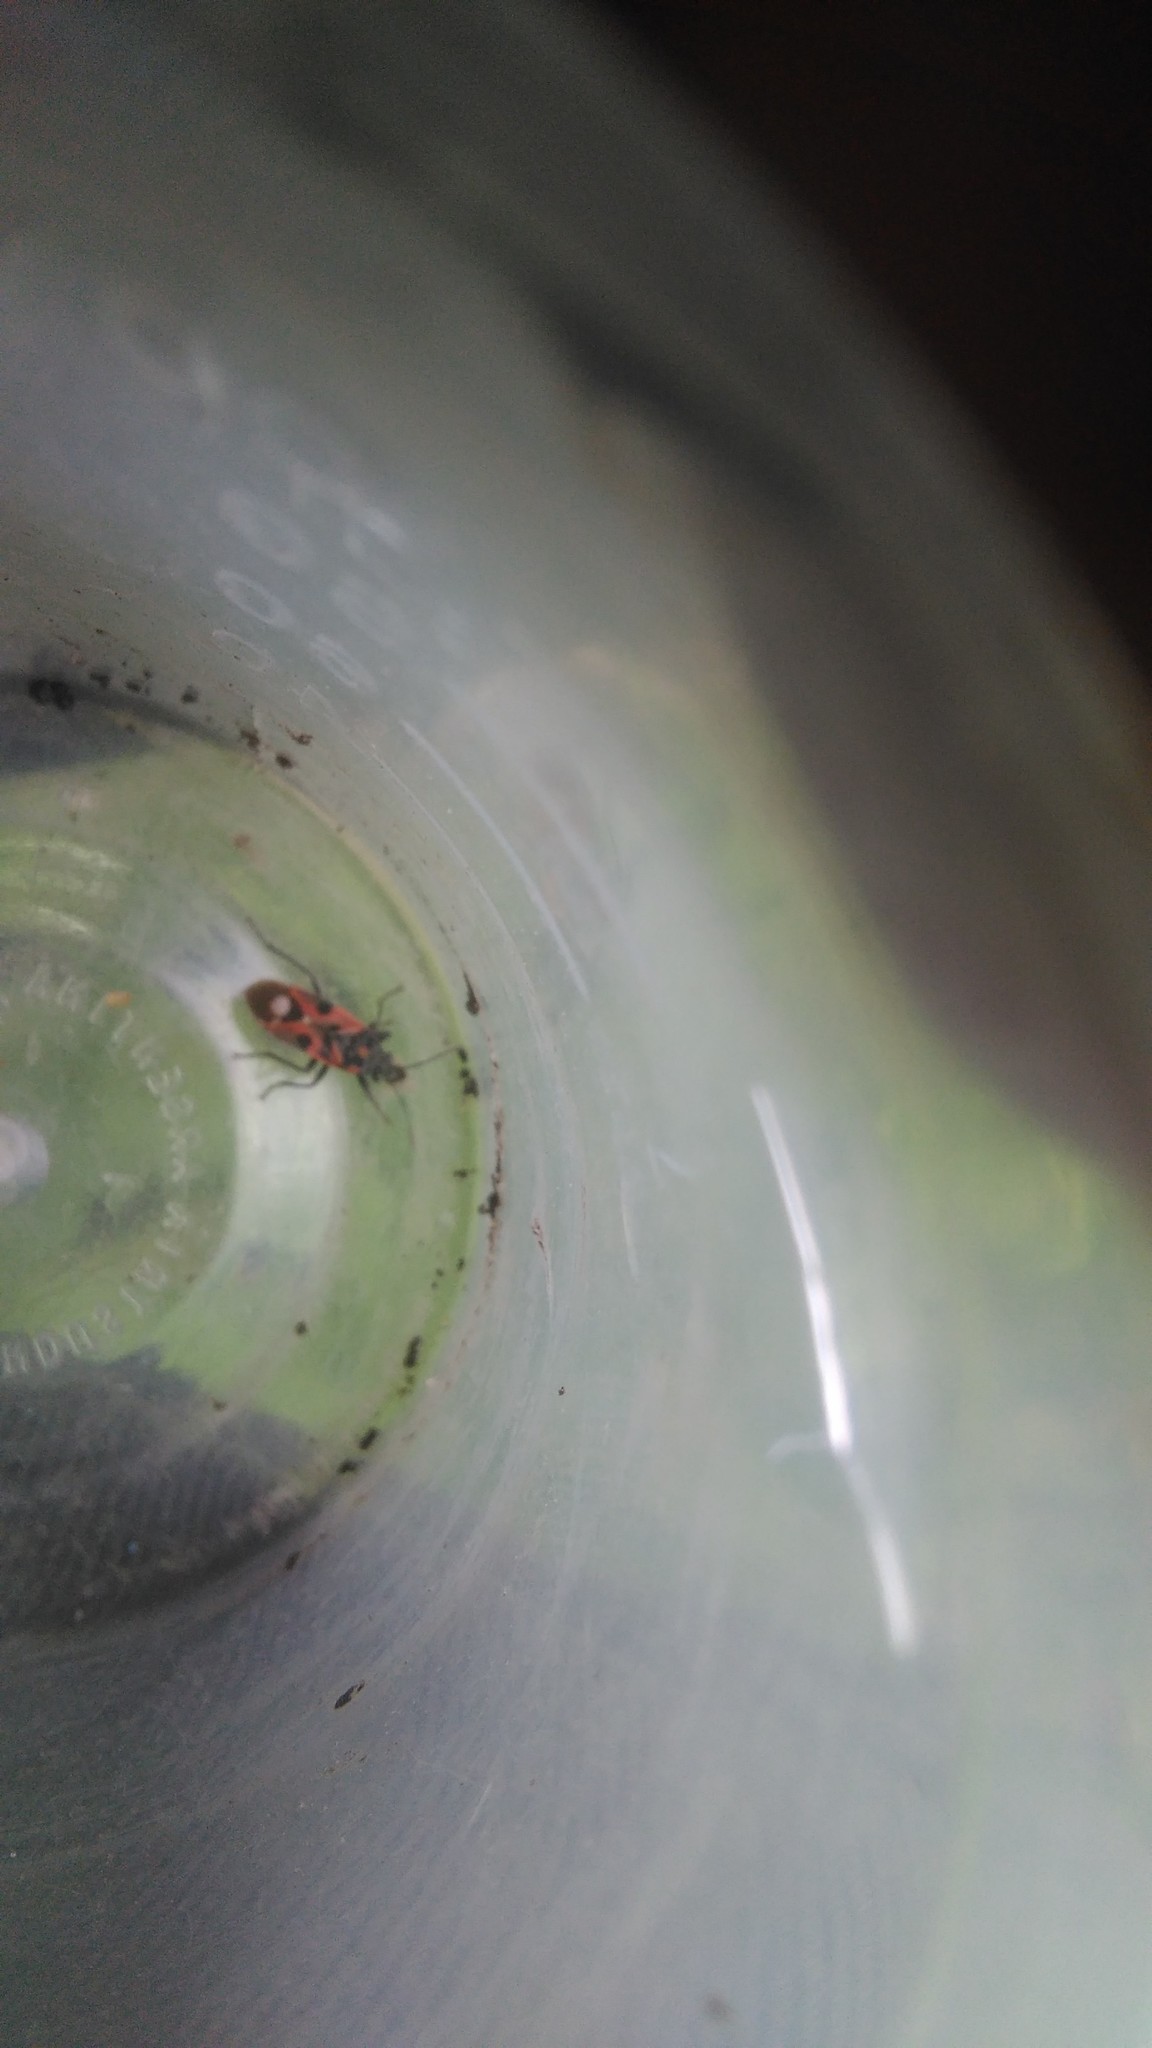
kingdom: Animalia
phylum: Arthropoda
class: Insecta
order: Hemiptera
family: Lygaeidae
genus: Lygaeus
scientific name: Lygaeus alboornatus
